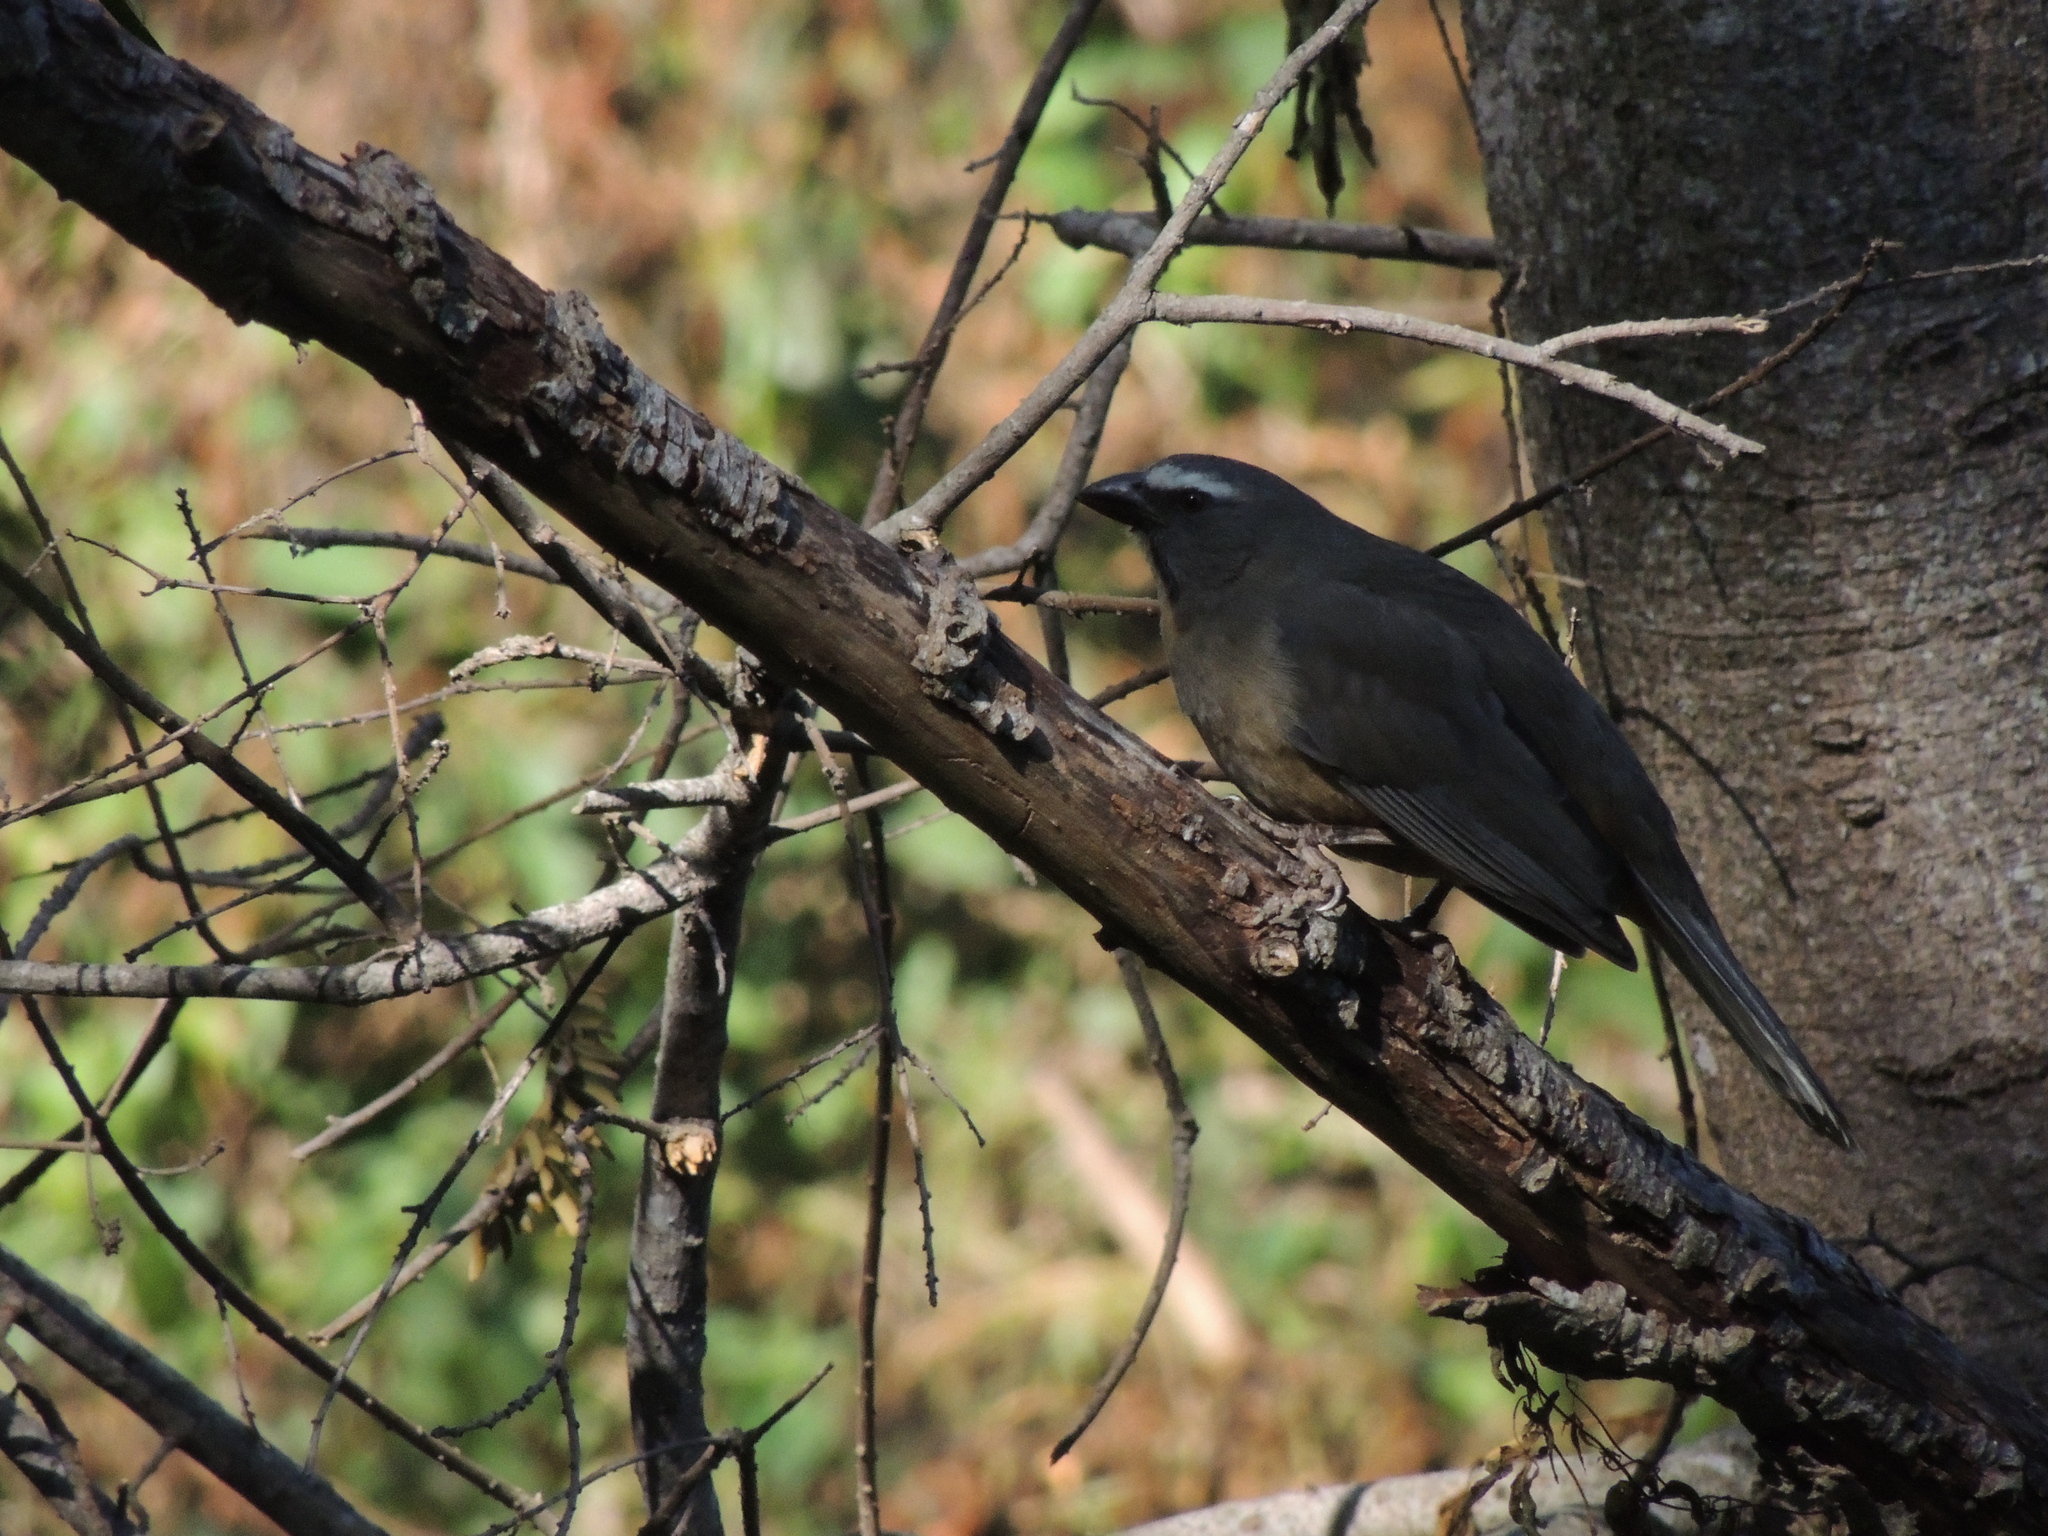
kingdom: Animalia
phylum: Chordata
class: Aves
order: Passeriformes
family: Thraupidae
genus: Saltator
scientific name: Saltator coerulescens
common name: Grayish saltator
